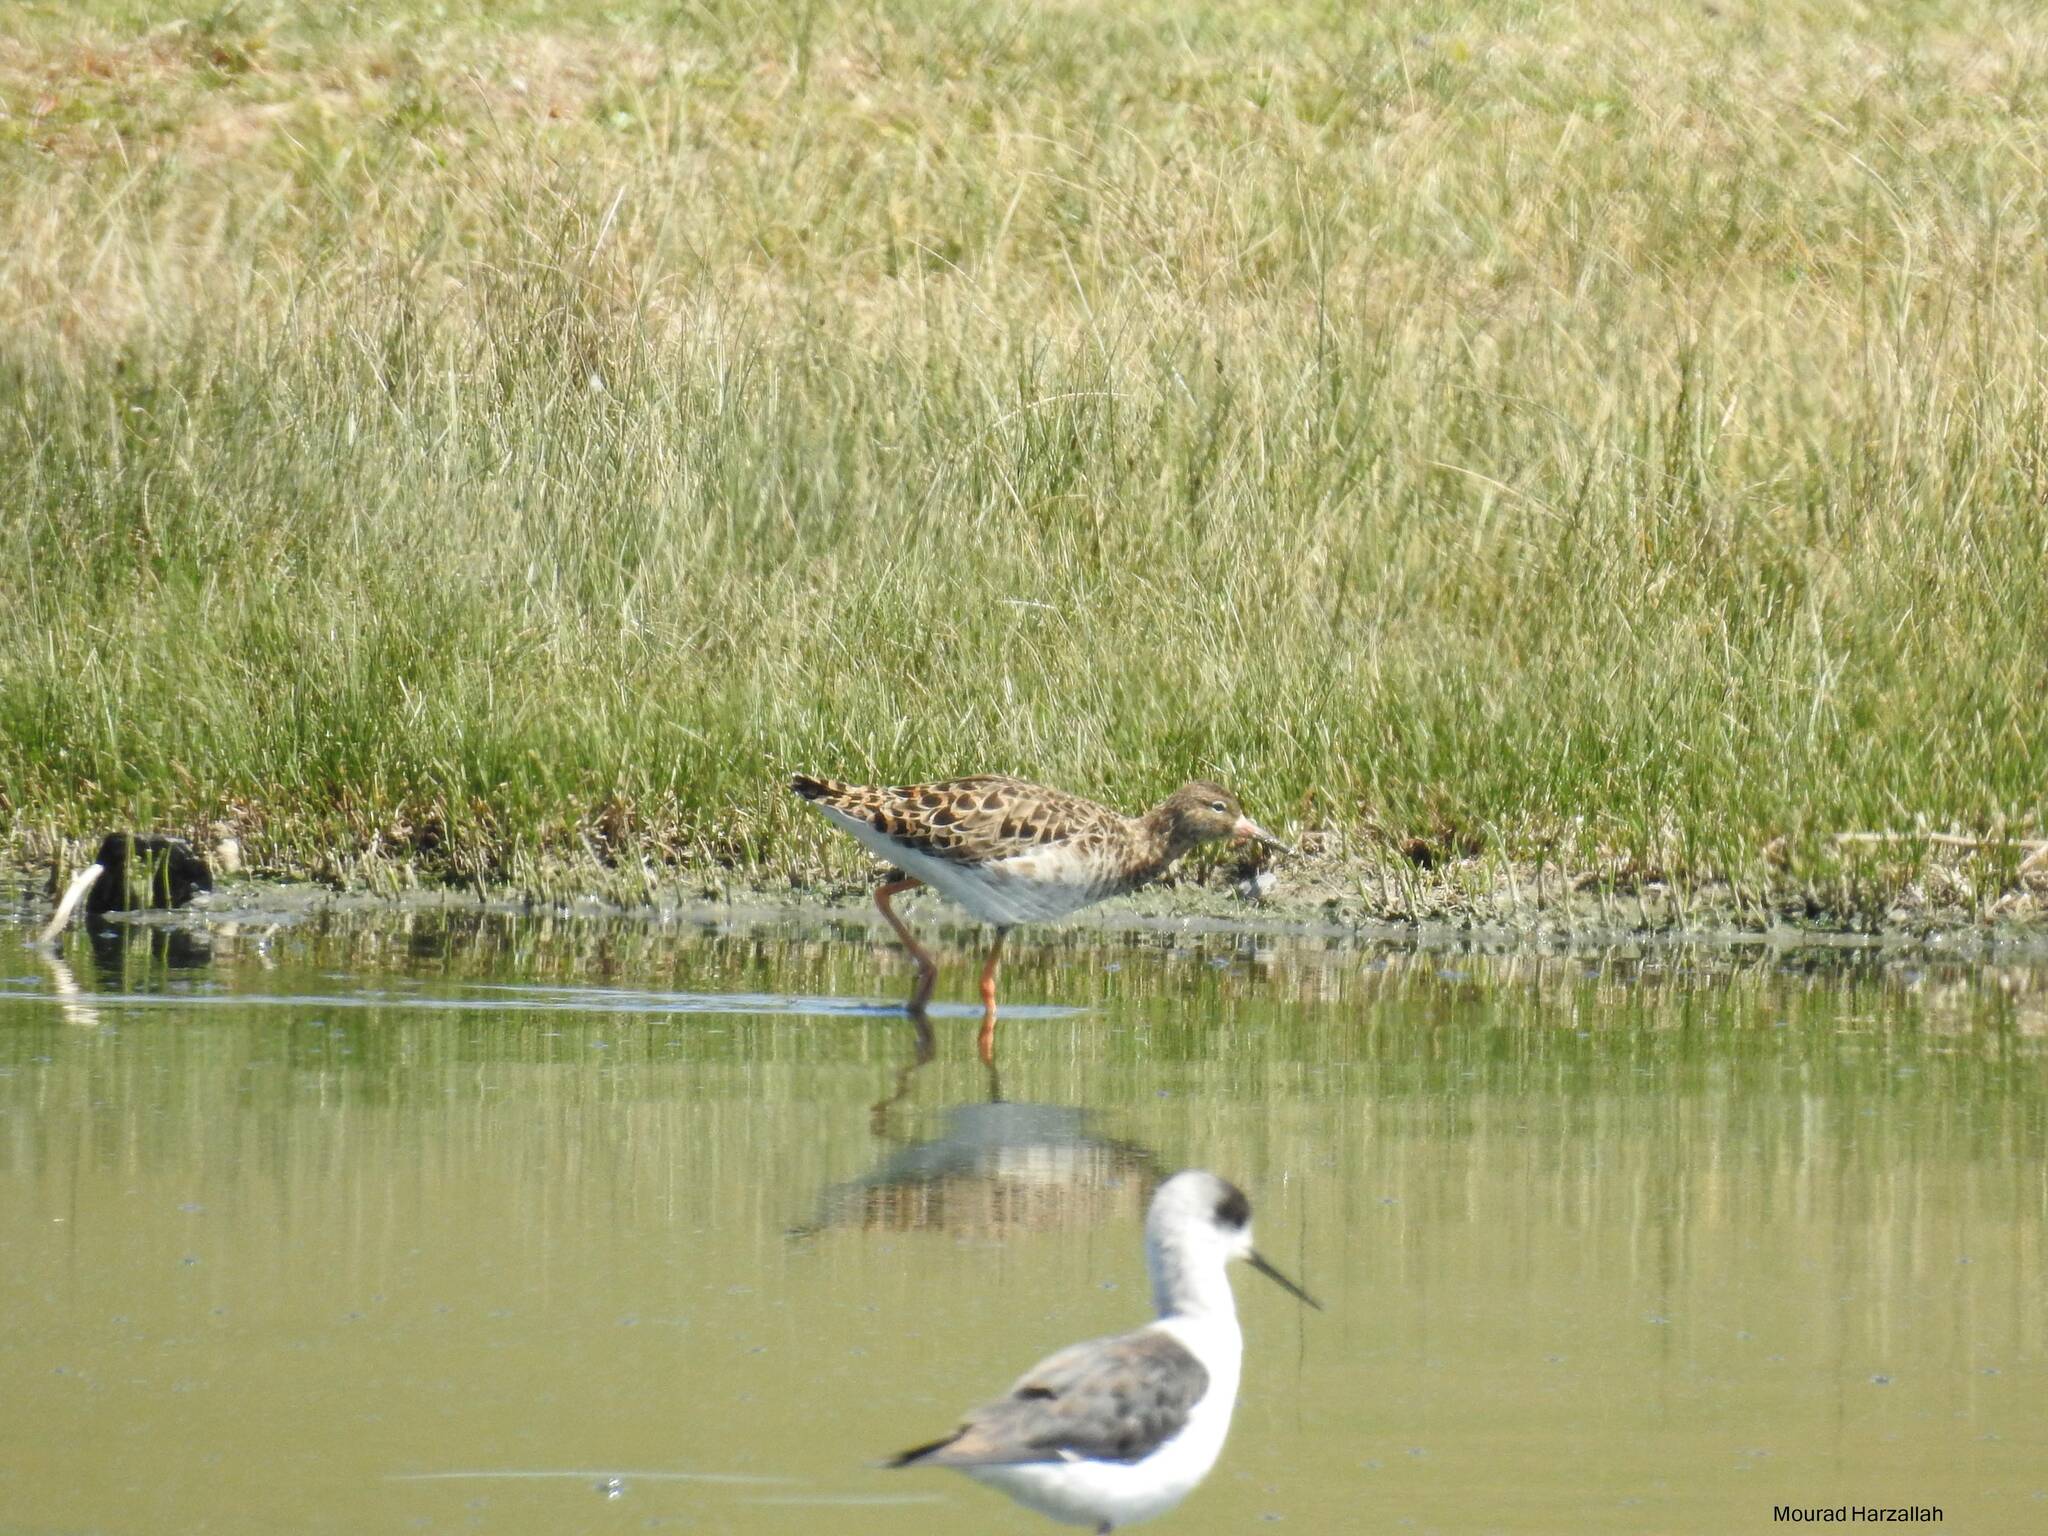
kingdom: Animalia
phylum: Chordata
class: Aves
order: Charadriiformes
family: Scolopacidae
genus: Calidris
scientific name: Calidris pugnax
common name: Ruff
